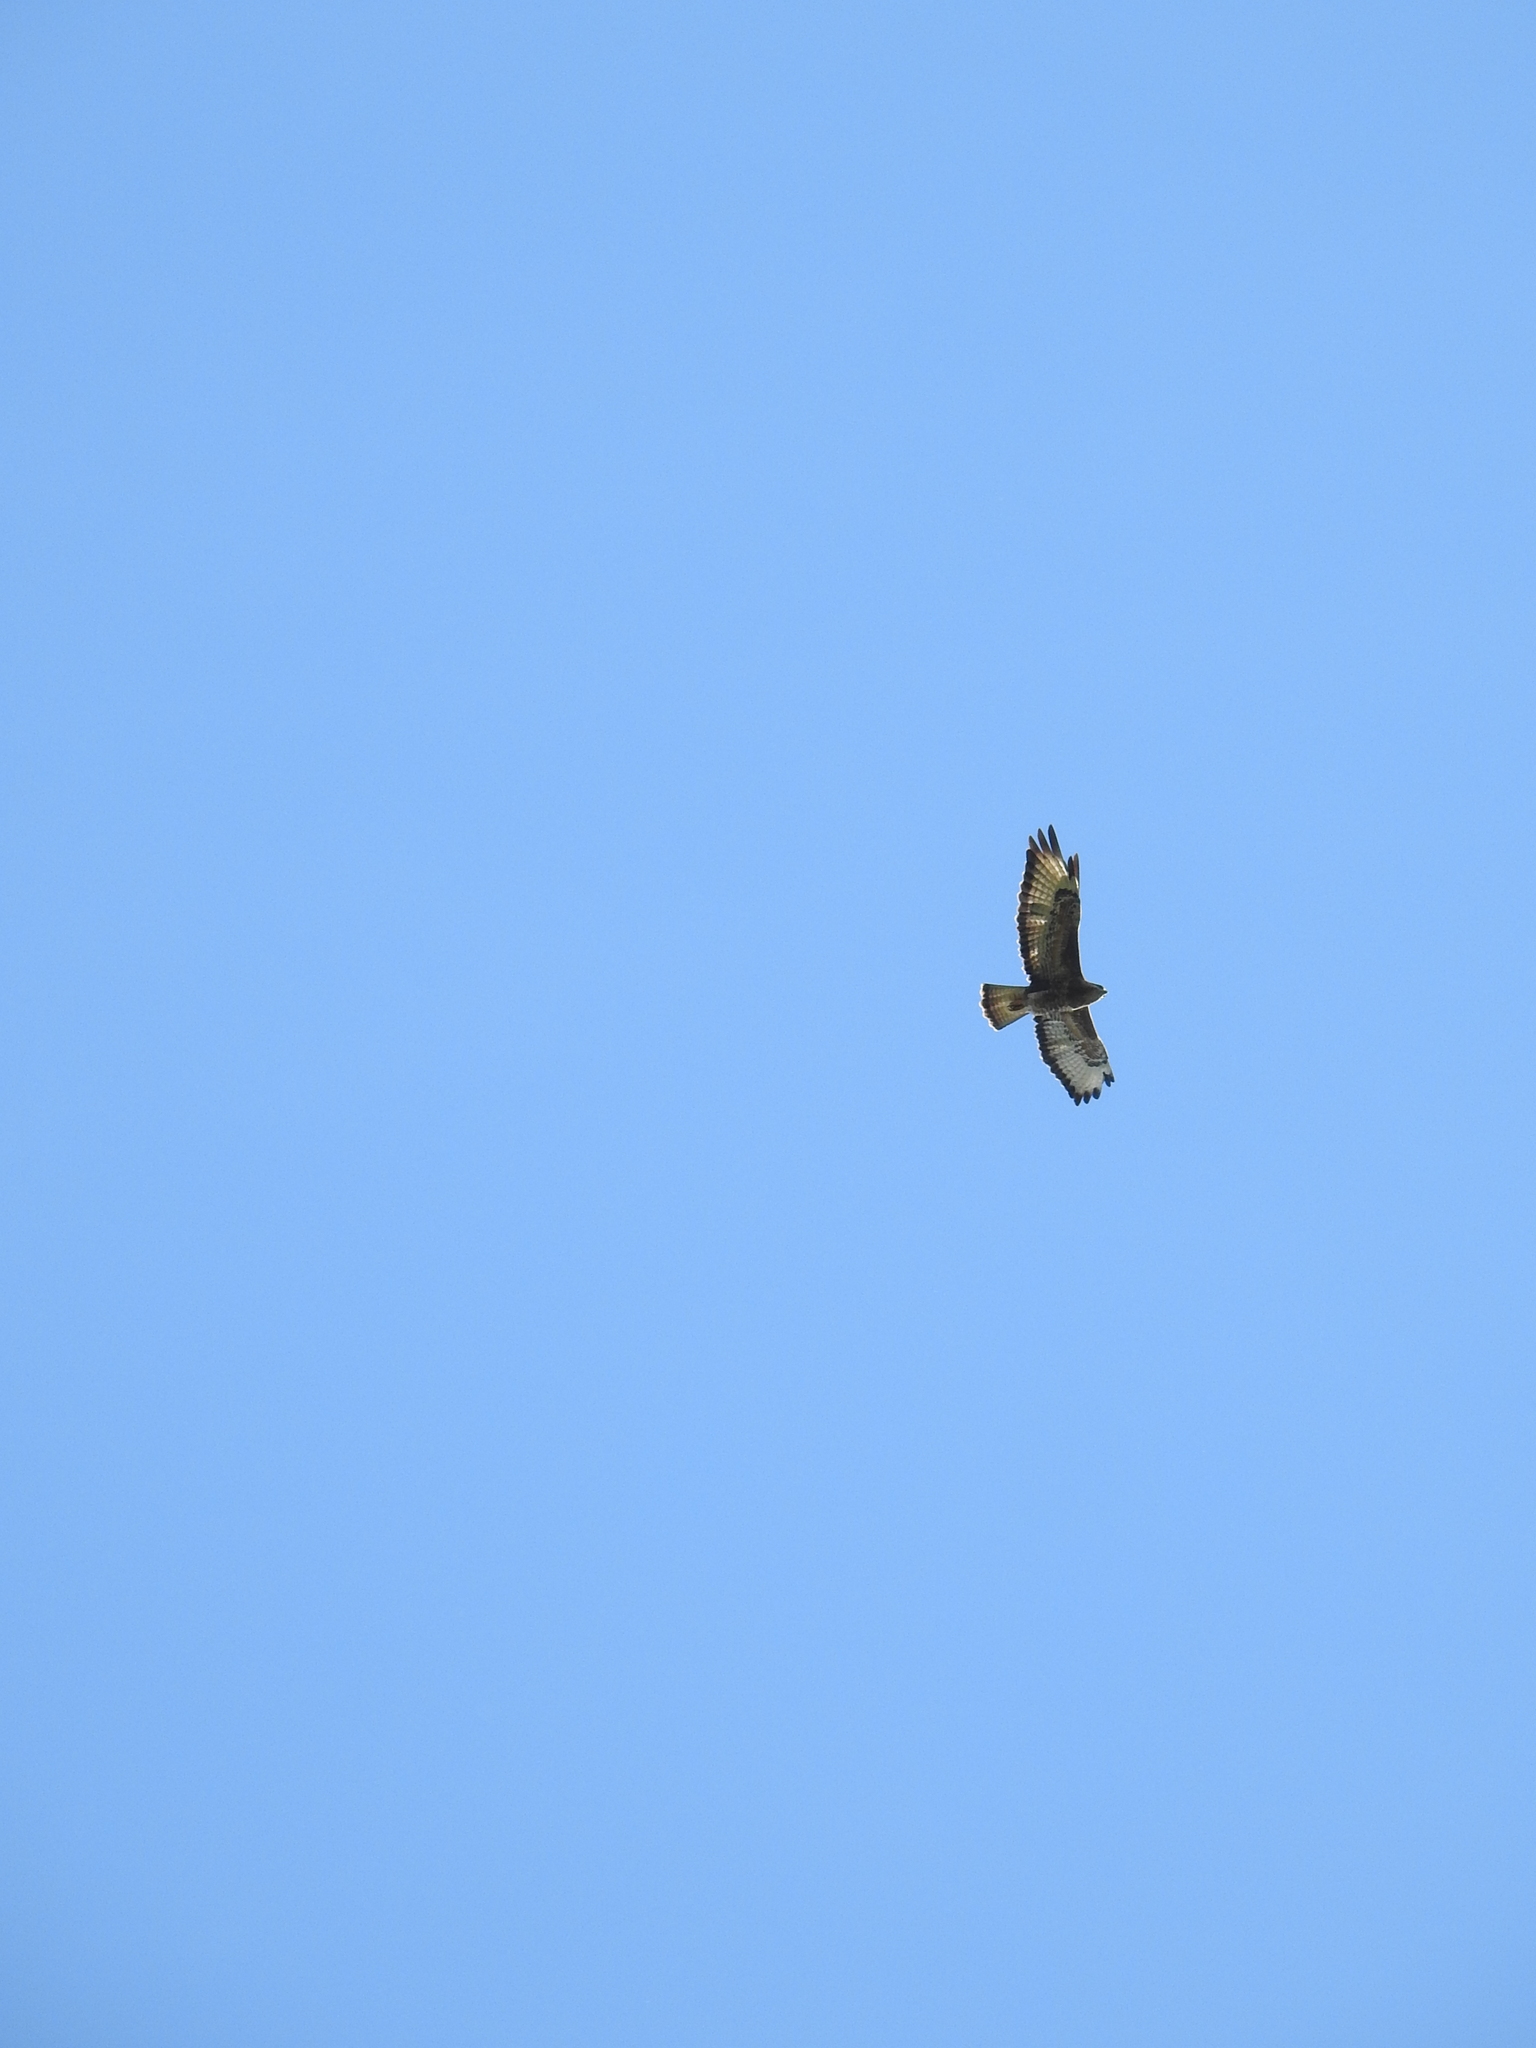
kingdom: Animalia
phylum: Chordata
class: Aves
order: Accipitriformes
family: Accipitridae
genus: Buteo
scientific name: Buteo buteo
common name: Common buzzard
